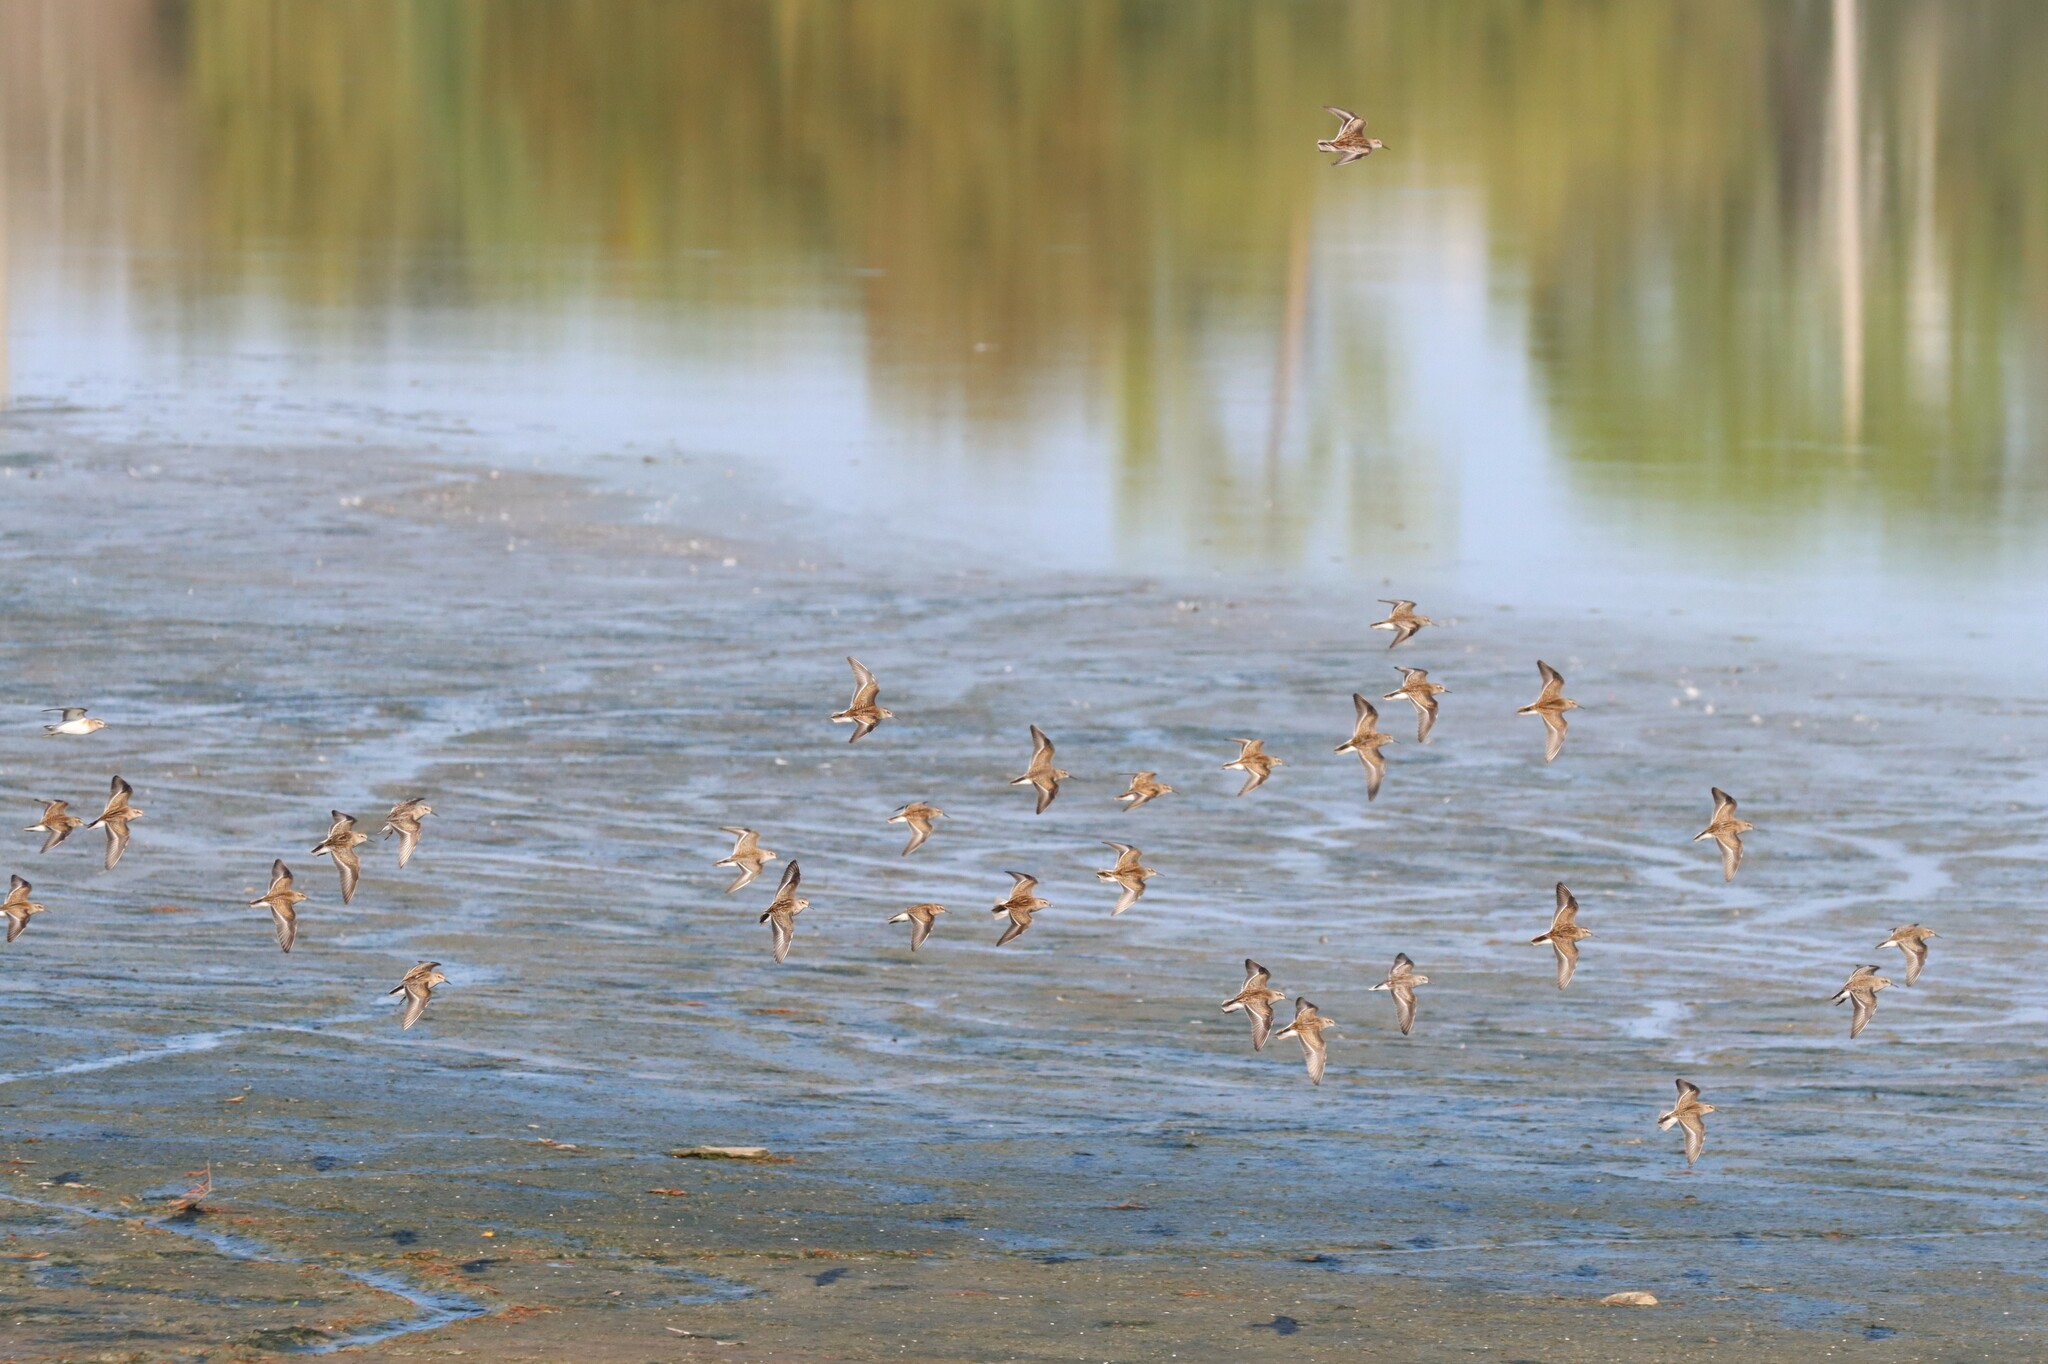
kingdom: Animalia
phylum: Chordata
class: Aves
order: Charadriiformes
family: Scolopacidae
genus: Calidris
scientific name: Calidris minutilla
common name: Least sandpiper
